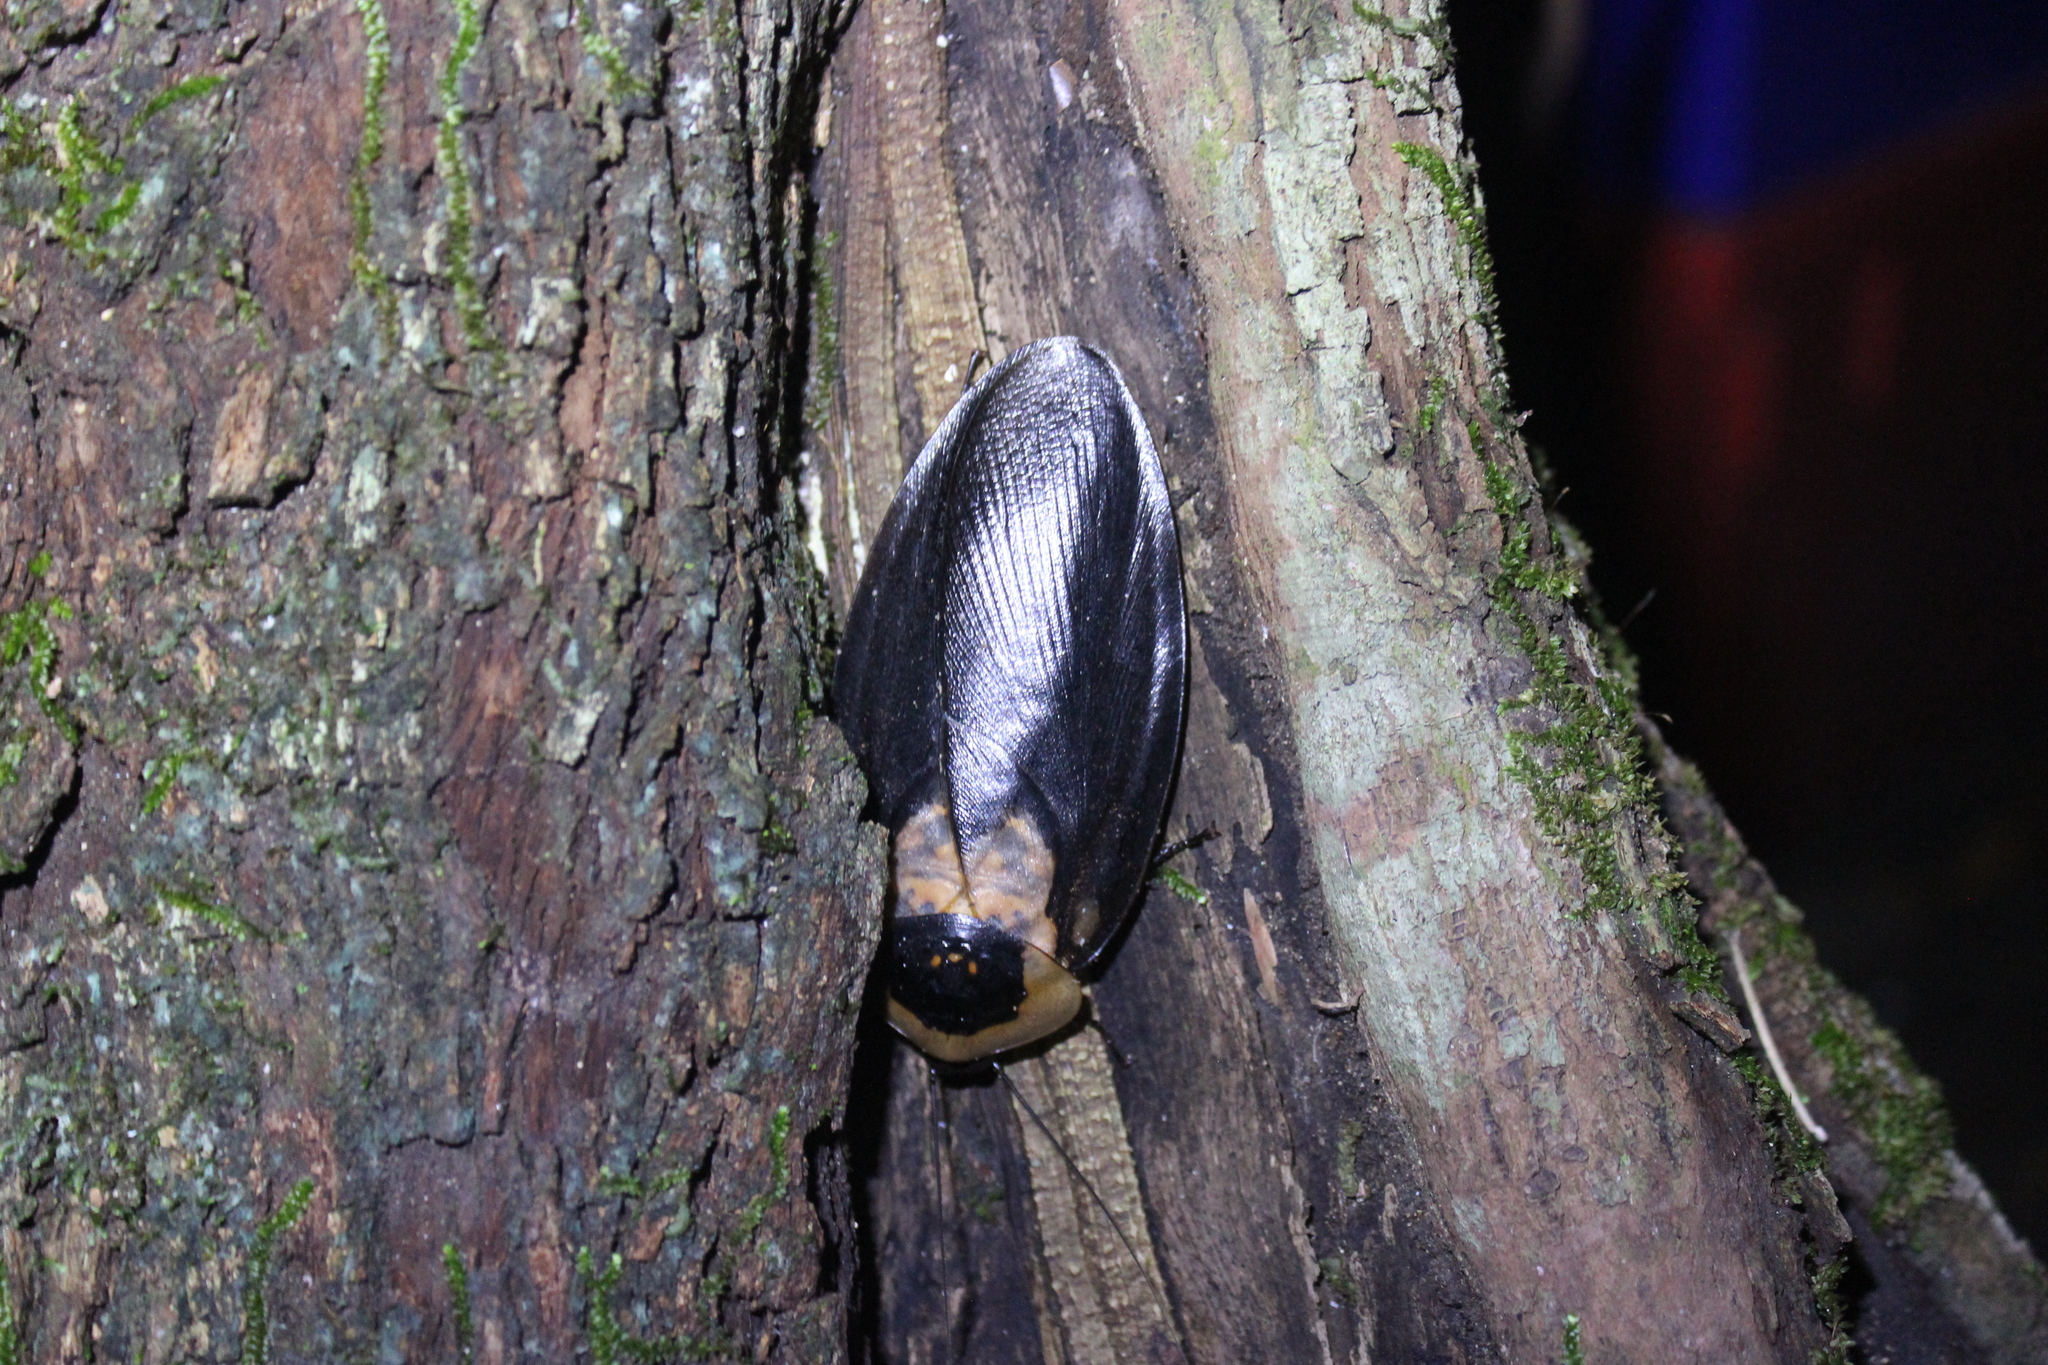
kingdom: Animalia
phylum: Arthropoda
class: Insecta
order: Blattodea
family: Blaberidae
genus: Blaberus
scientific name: Blaberus craniifer
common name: Death's head cockroach
